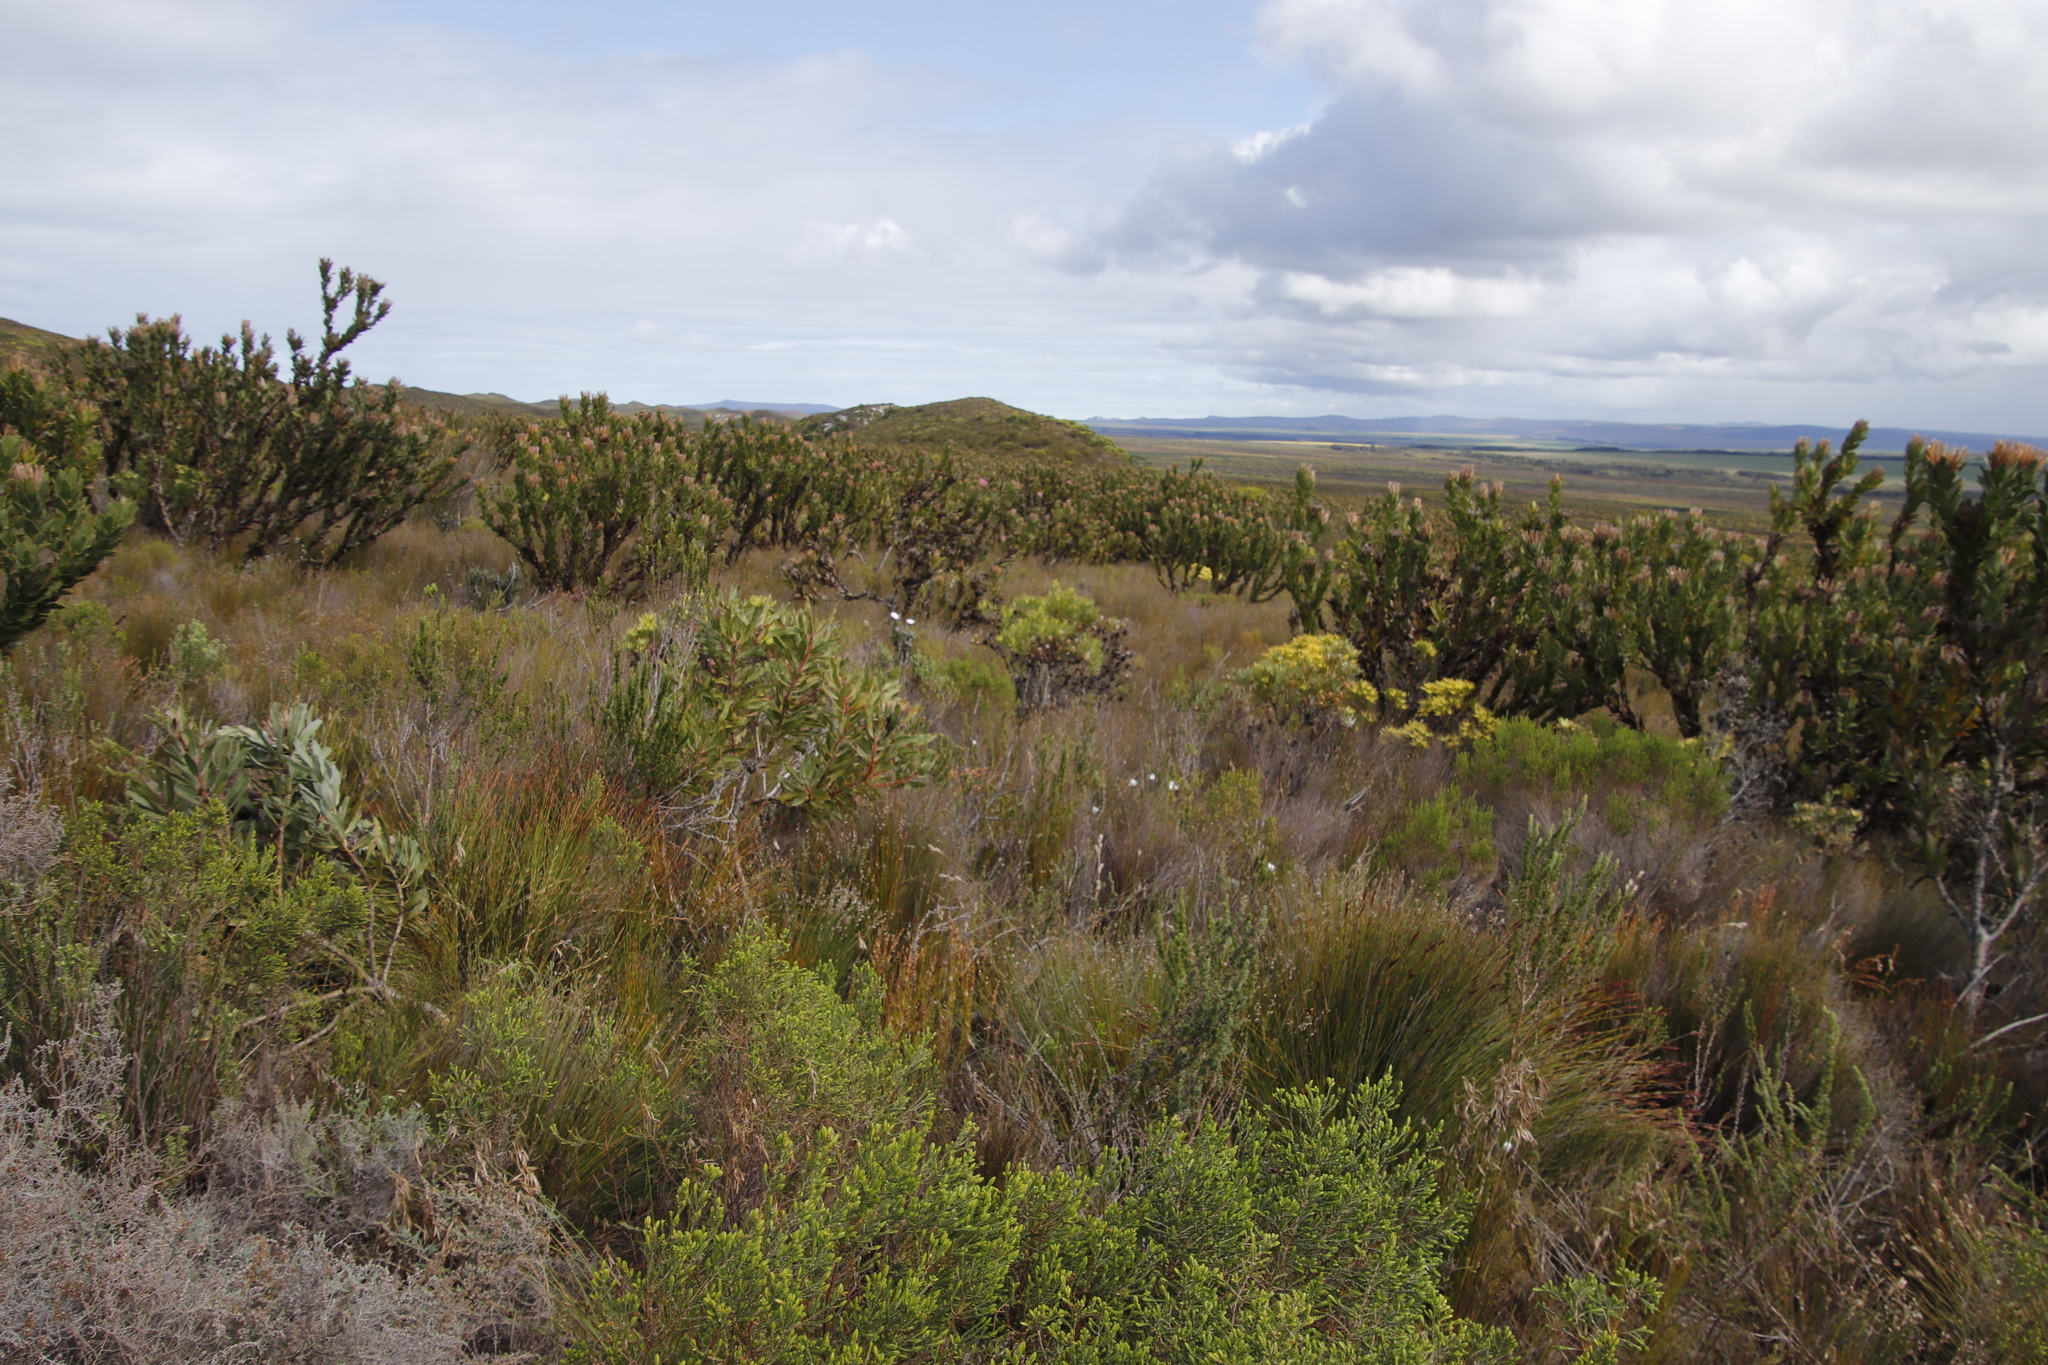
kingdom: Plantae
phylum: Tracheophyta
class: Magnoliopsida
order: Proteales
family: Proteaceae
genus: Protea
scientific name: Protea compacta
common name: Bot river protea
